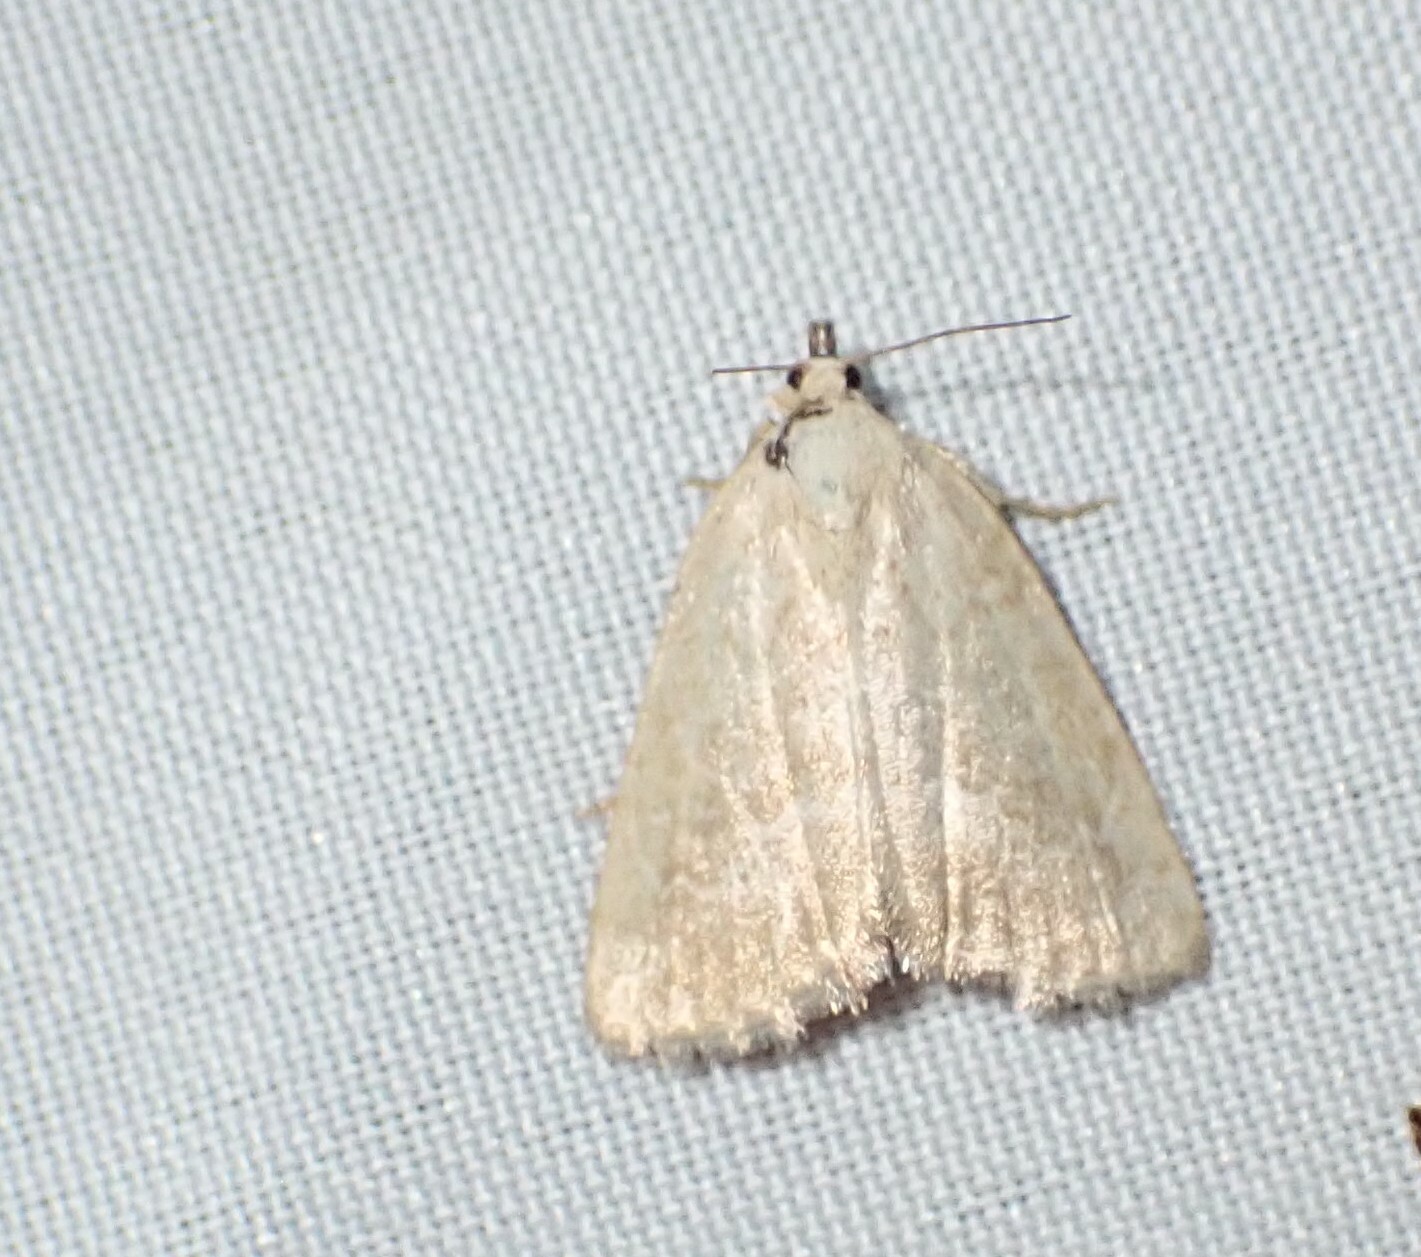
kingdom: Animalia
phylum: Arthropoda
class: Insecta
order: Lepidoptera
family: Noctuidae
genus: Protodeltote
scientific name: Protodeltote albidula
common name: Pale glyph
